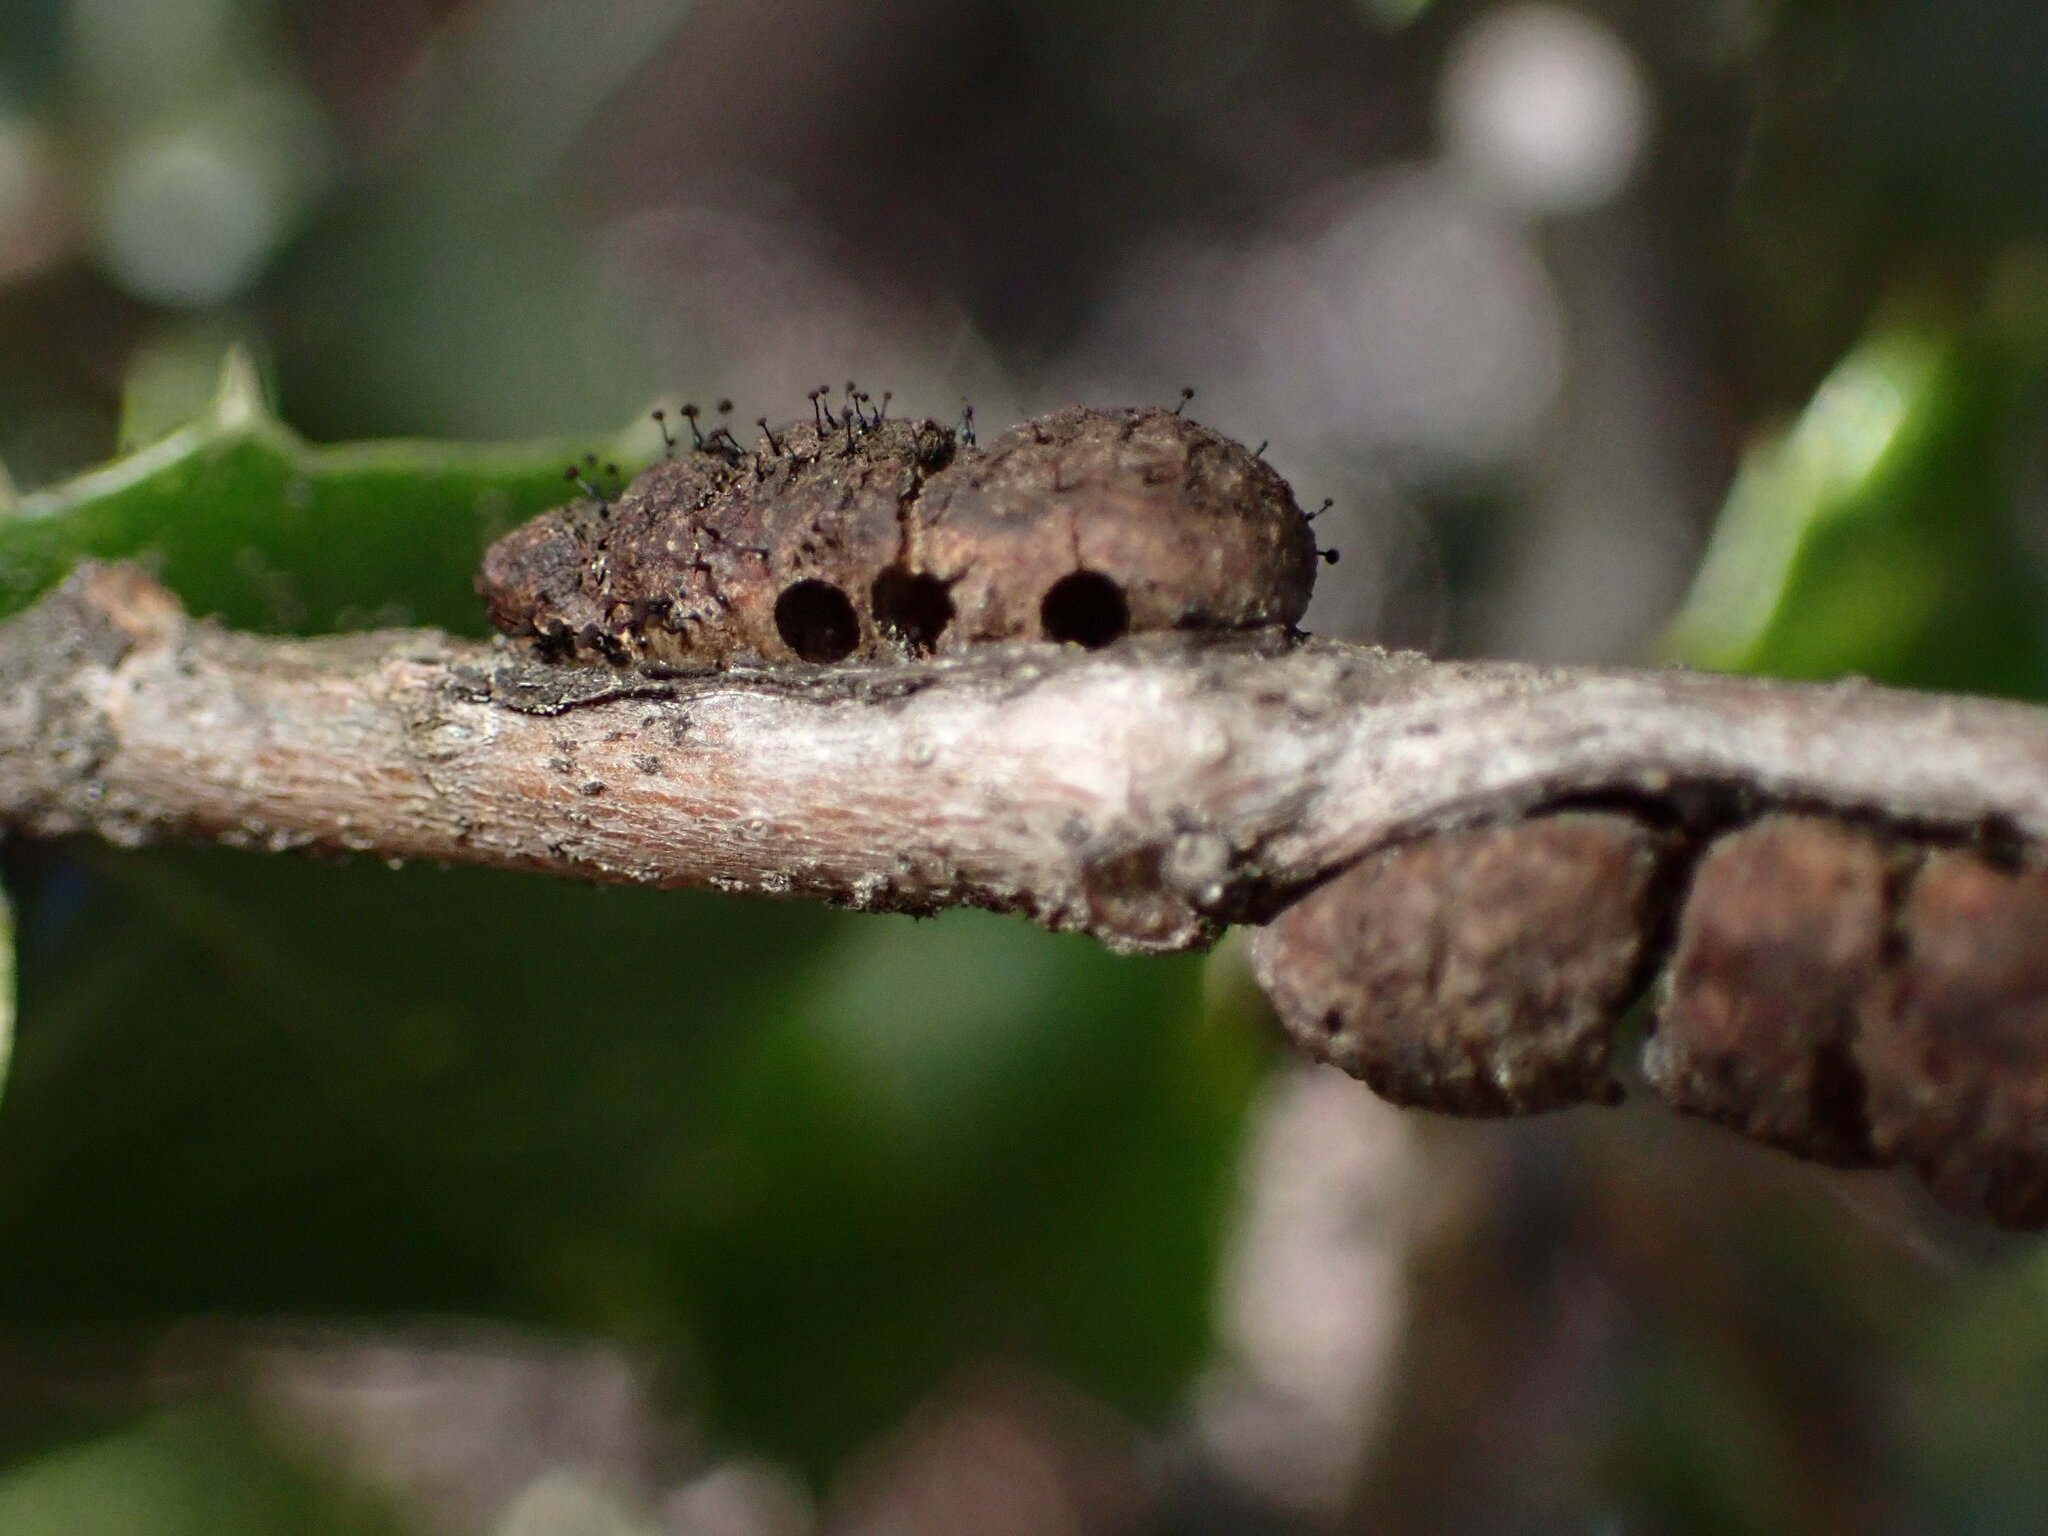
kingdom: Animalia
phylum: Arthropoda
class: Insecta
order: Hymenoptera
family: Cynipidae
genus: Disholandricus
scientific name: Disholandricus
